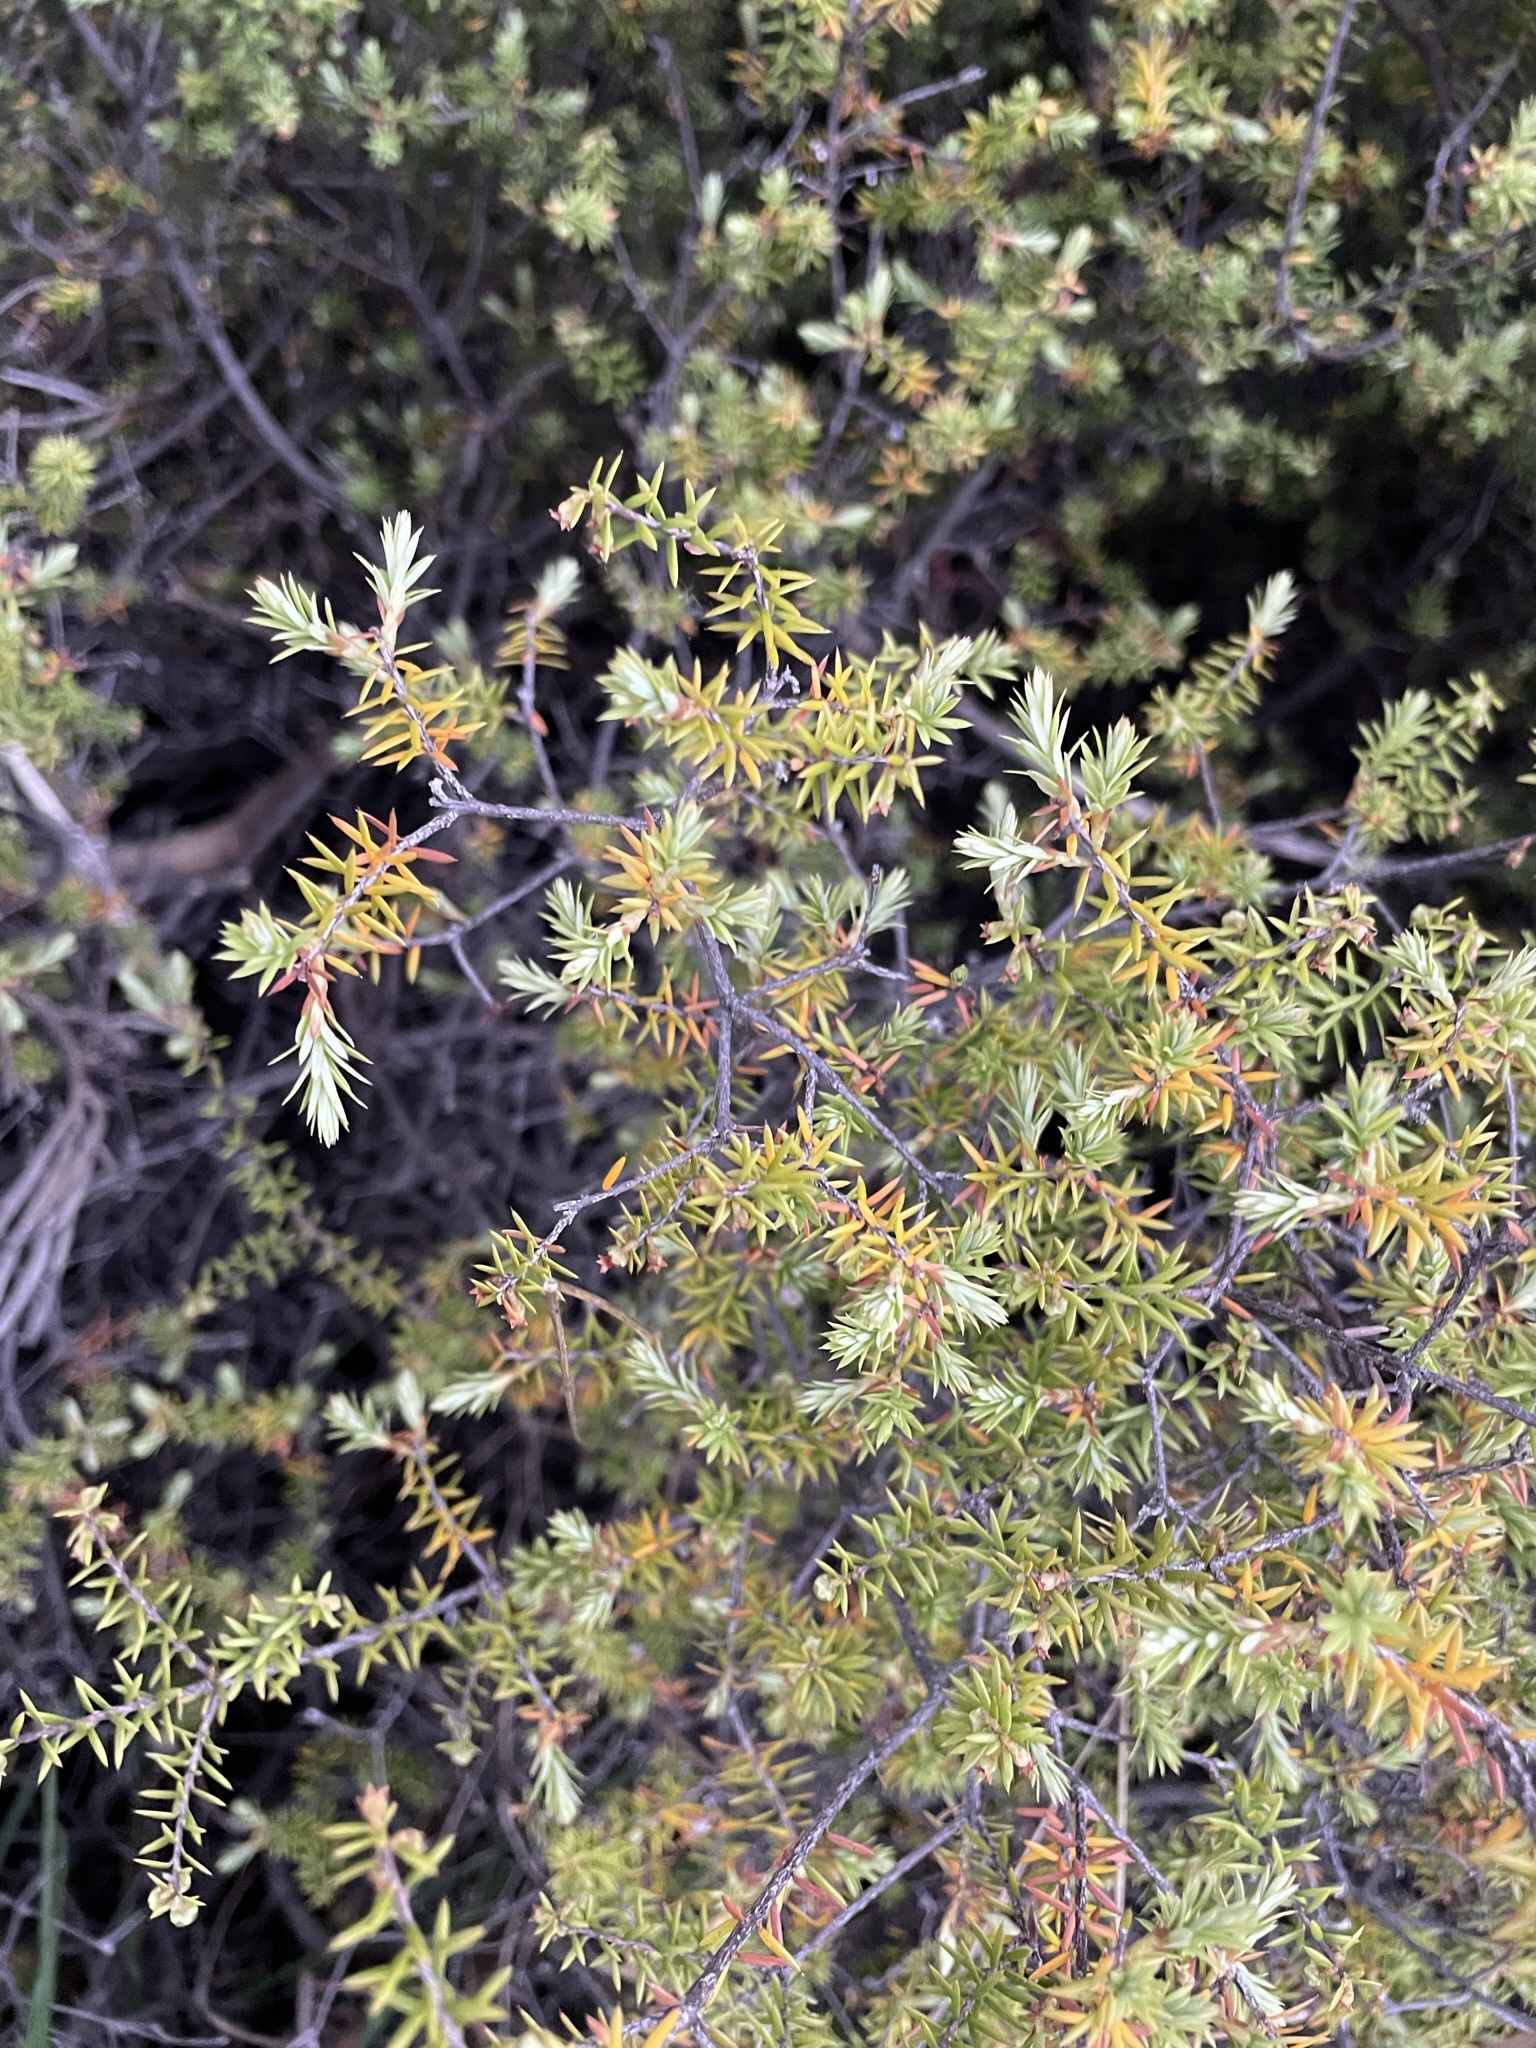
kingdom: Plantae
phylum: Tracheophyta
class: Magnoliopsida
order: Ericales
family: Ericaceae
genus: Leptecophylla
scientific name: Leptecophylla juniperina
